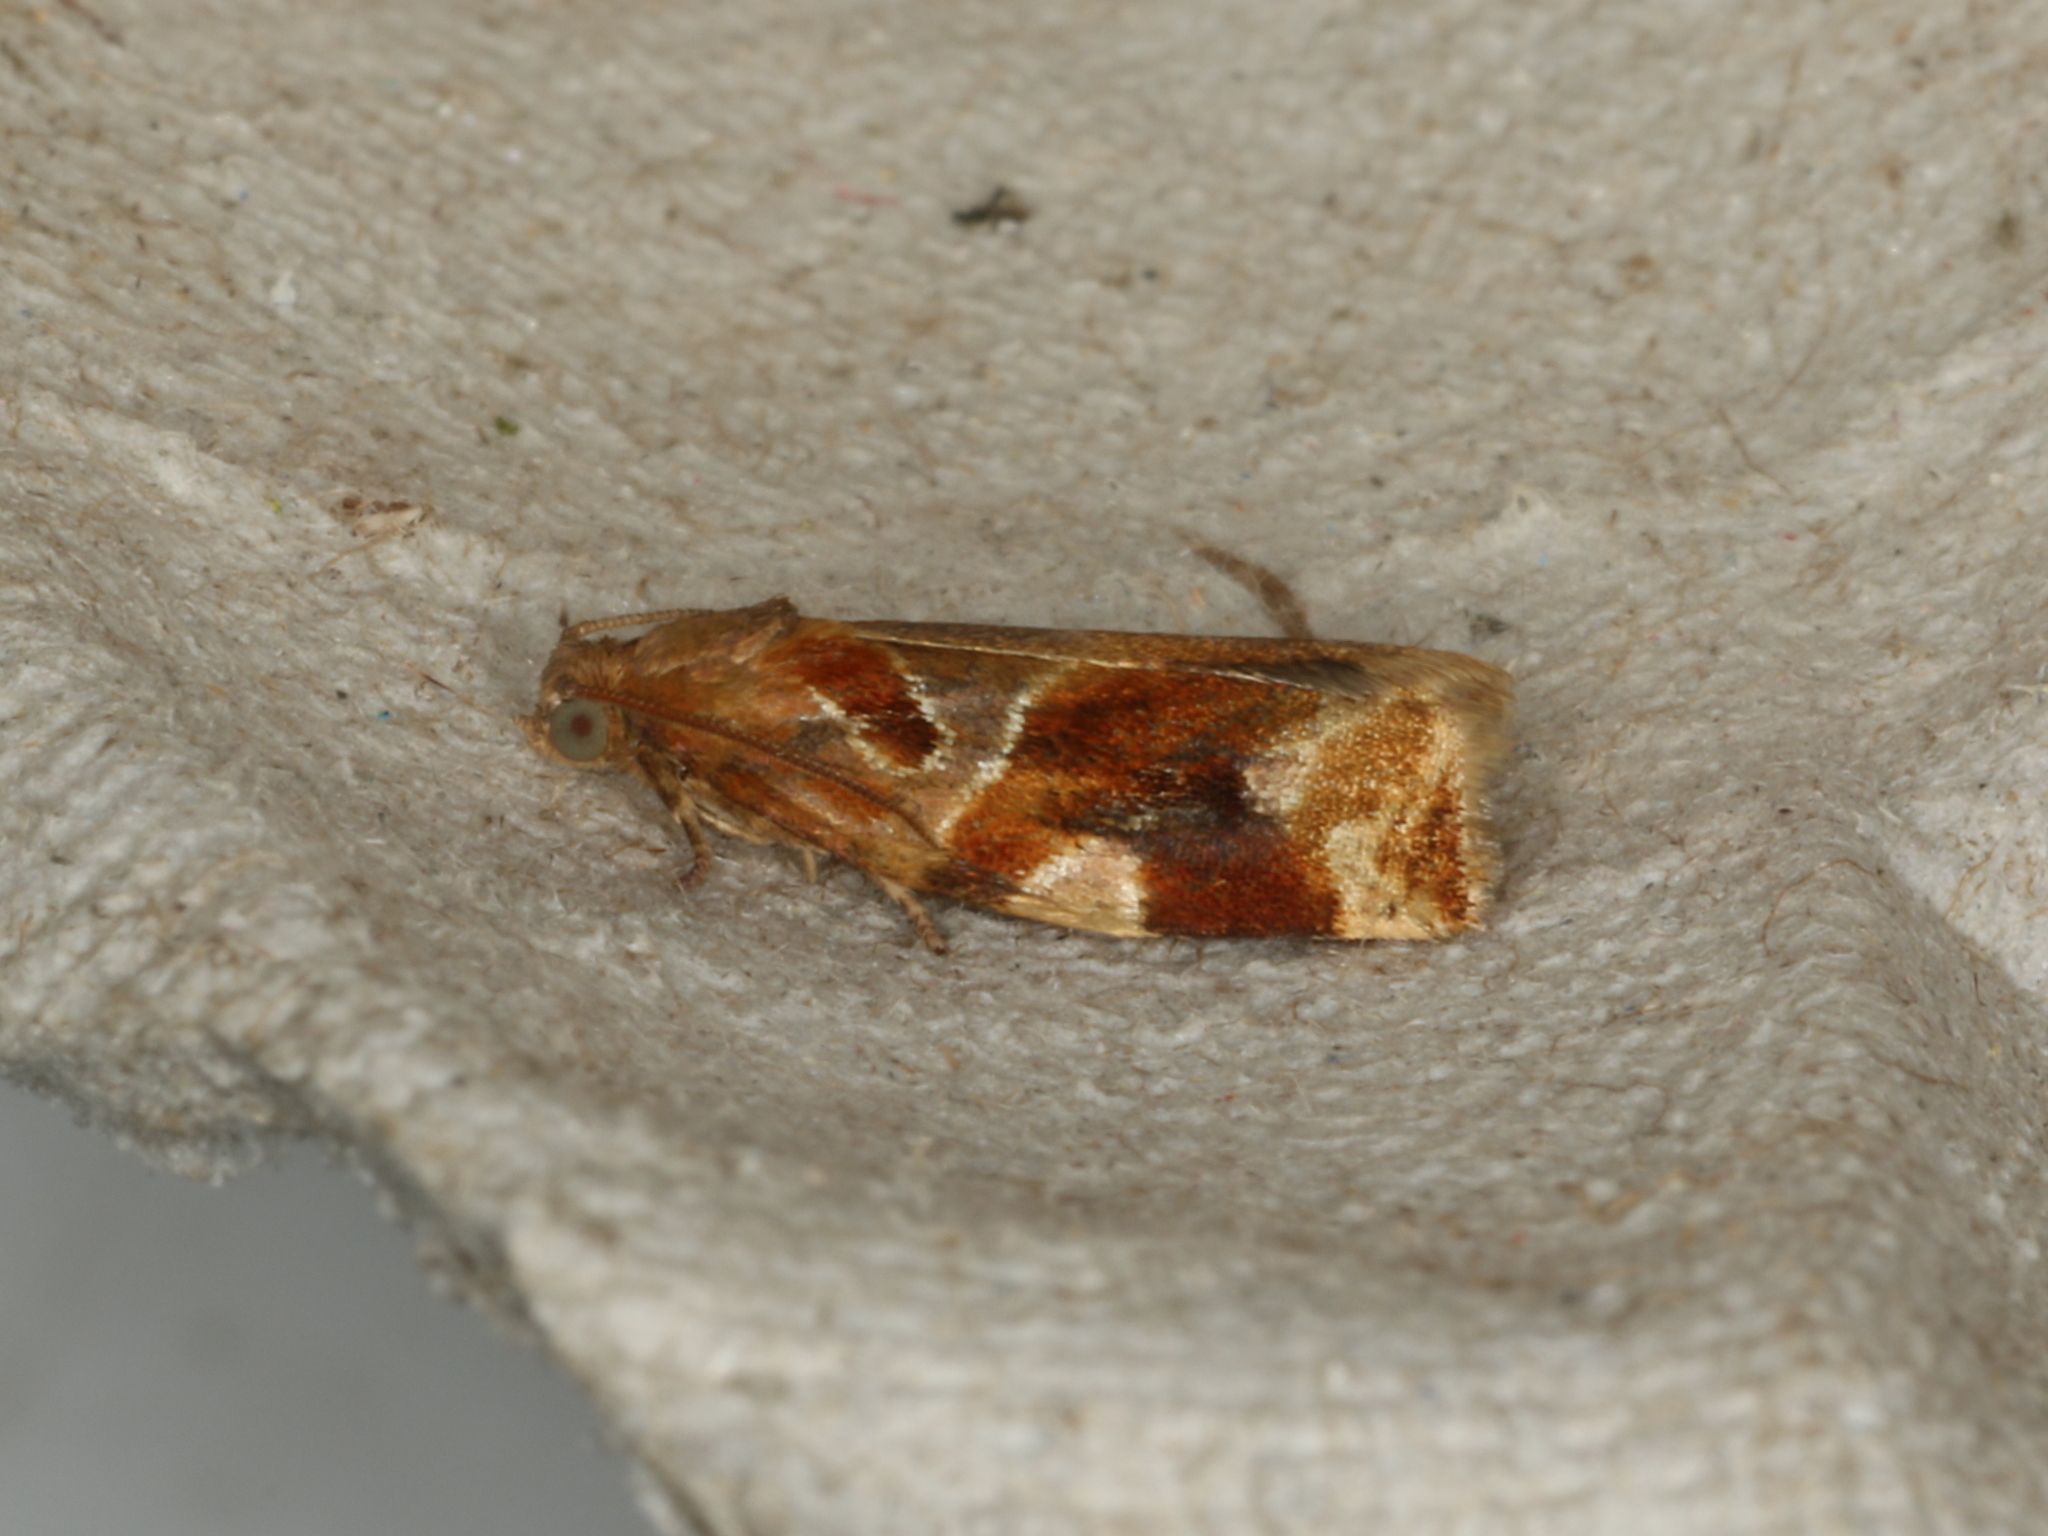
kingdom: Animalia
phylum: Arthropoda
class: Insecta
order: Lepidoptera
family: Tortricidae
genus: Archips
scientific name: Archips xylosteana
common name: Variegated golden tortrix
